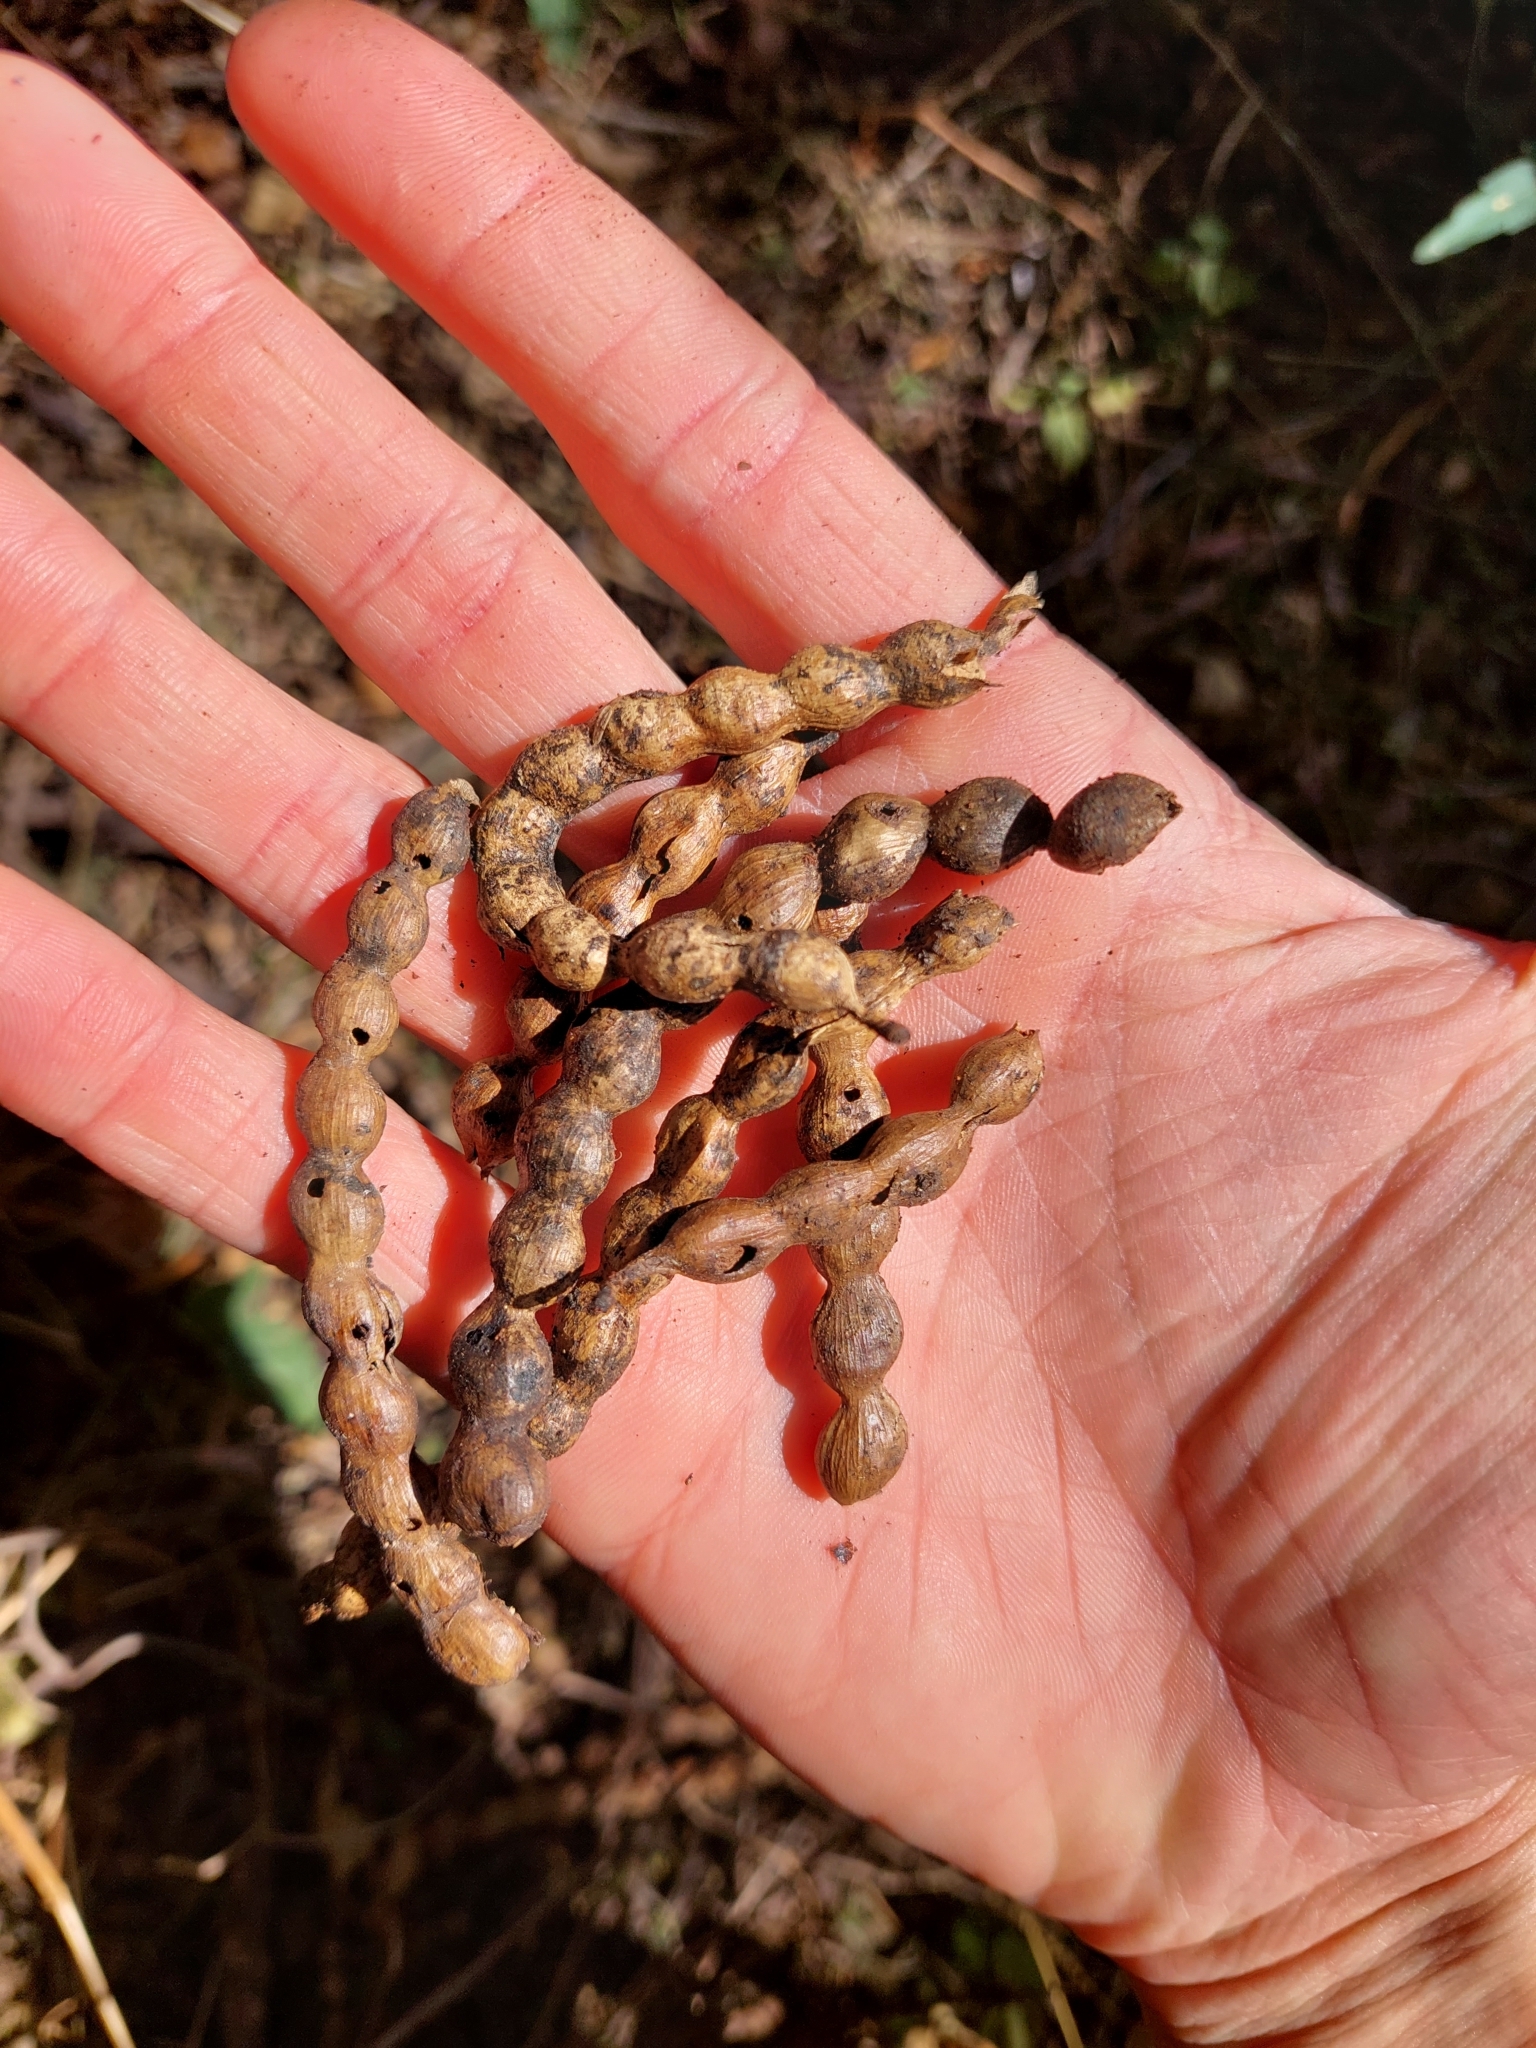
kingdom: Plantae
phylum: Tracheophyta
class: Magnoliopsida
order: Fabales
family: Fabaceae
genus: Prosopis
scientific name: Prosopis nigra
